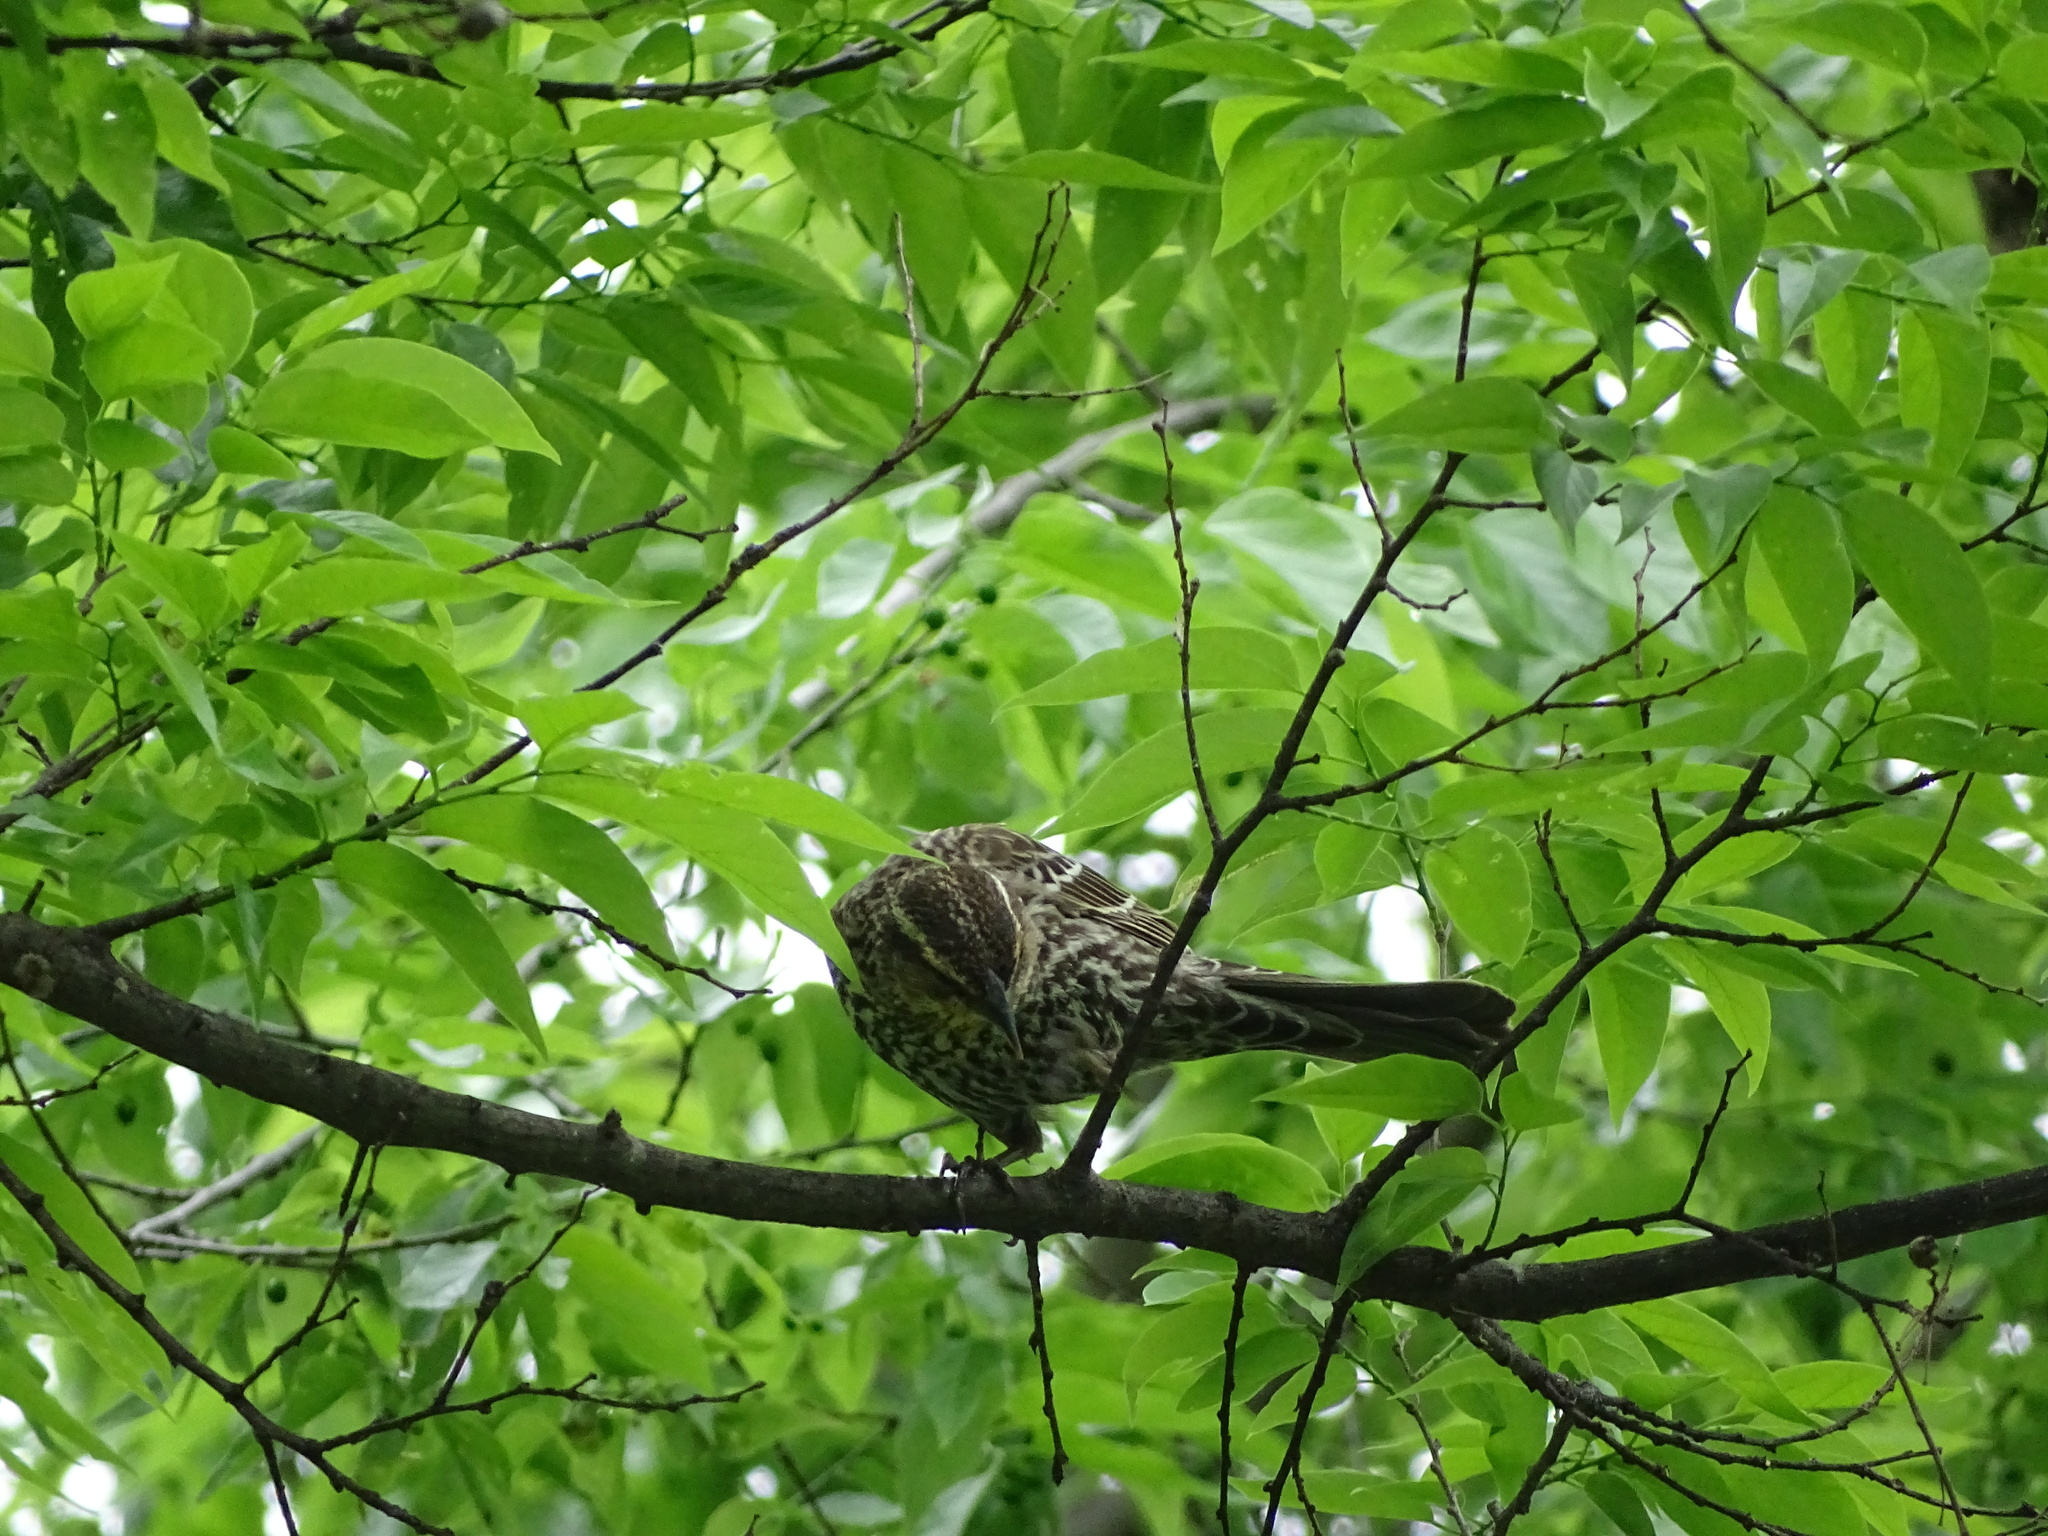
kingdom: Animalia
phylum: Chordata
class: Aves
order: Passeriformes
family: Icteridae
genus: Agelaius
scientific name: Agelaius phoeniceus
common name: Red-winged blackbird
